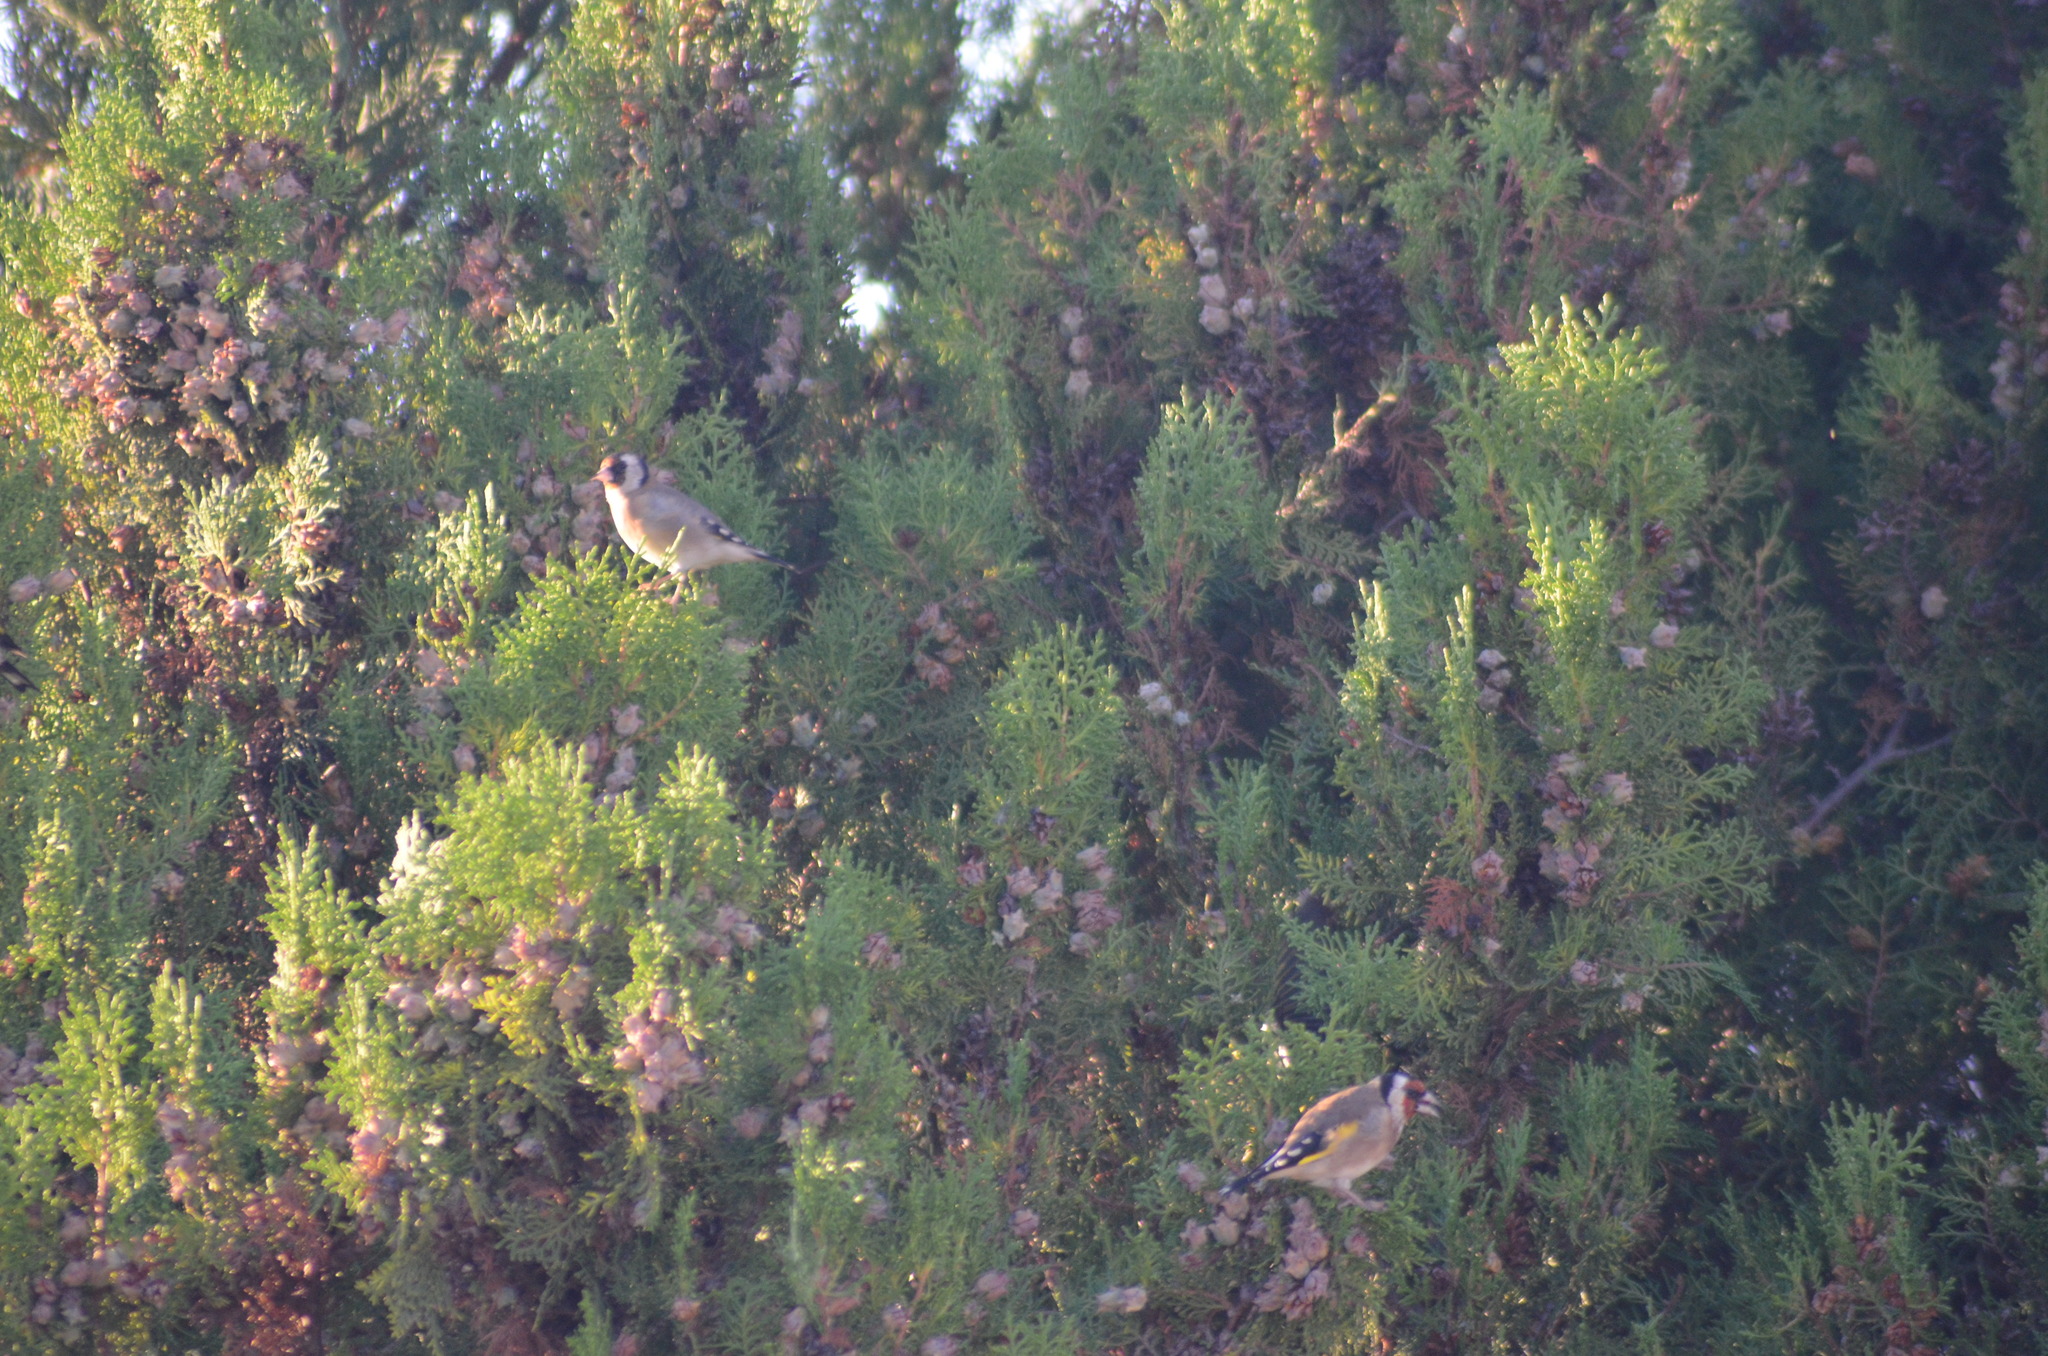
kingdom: Animalia
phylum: Chordata
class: Aves
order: Passeriformes
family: Fringillidae
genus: Carduelis
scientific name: Carduelis carduelis
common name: European goldfinch
